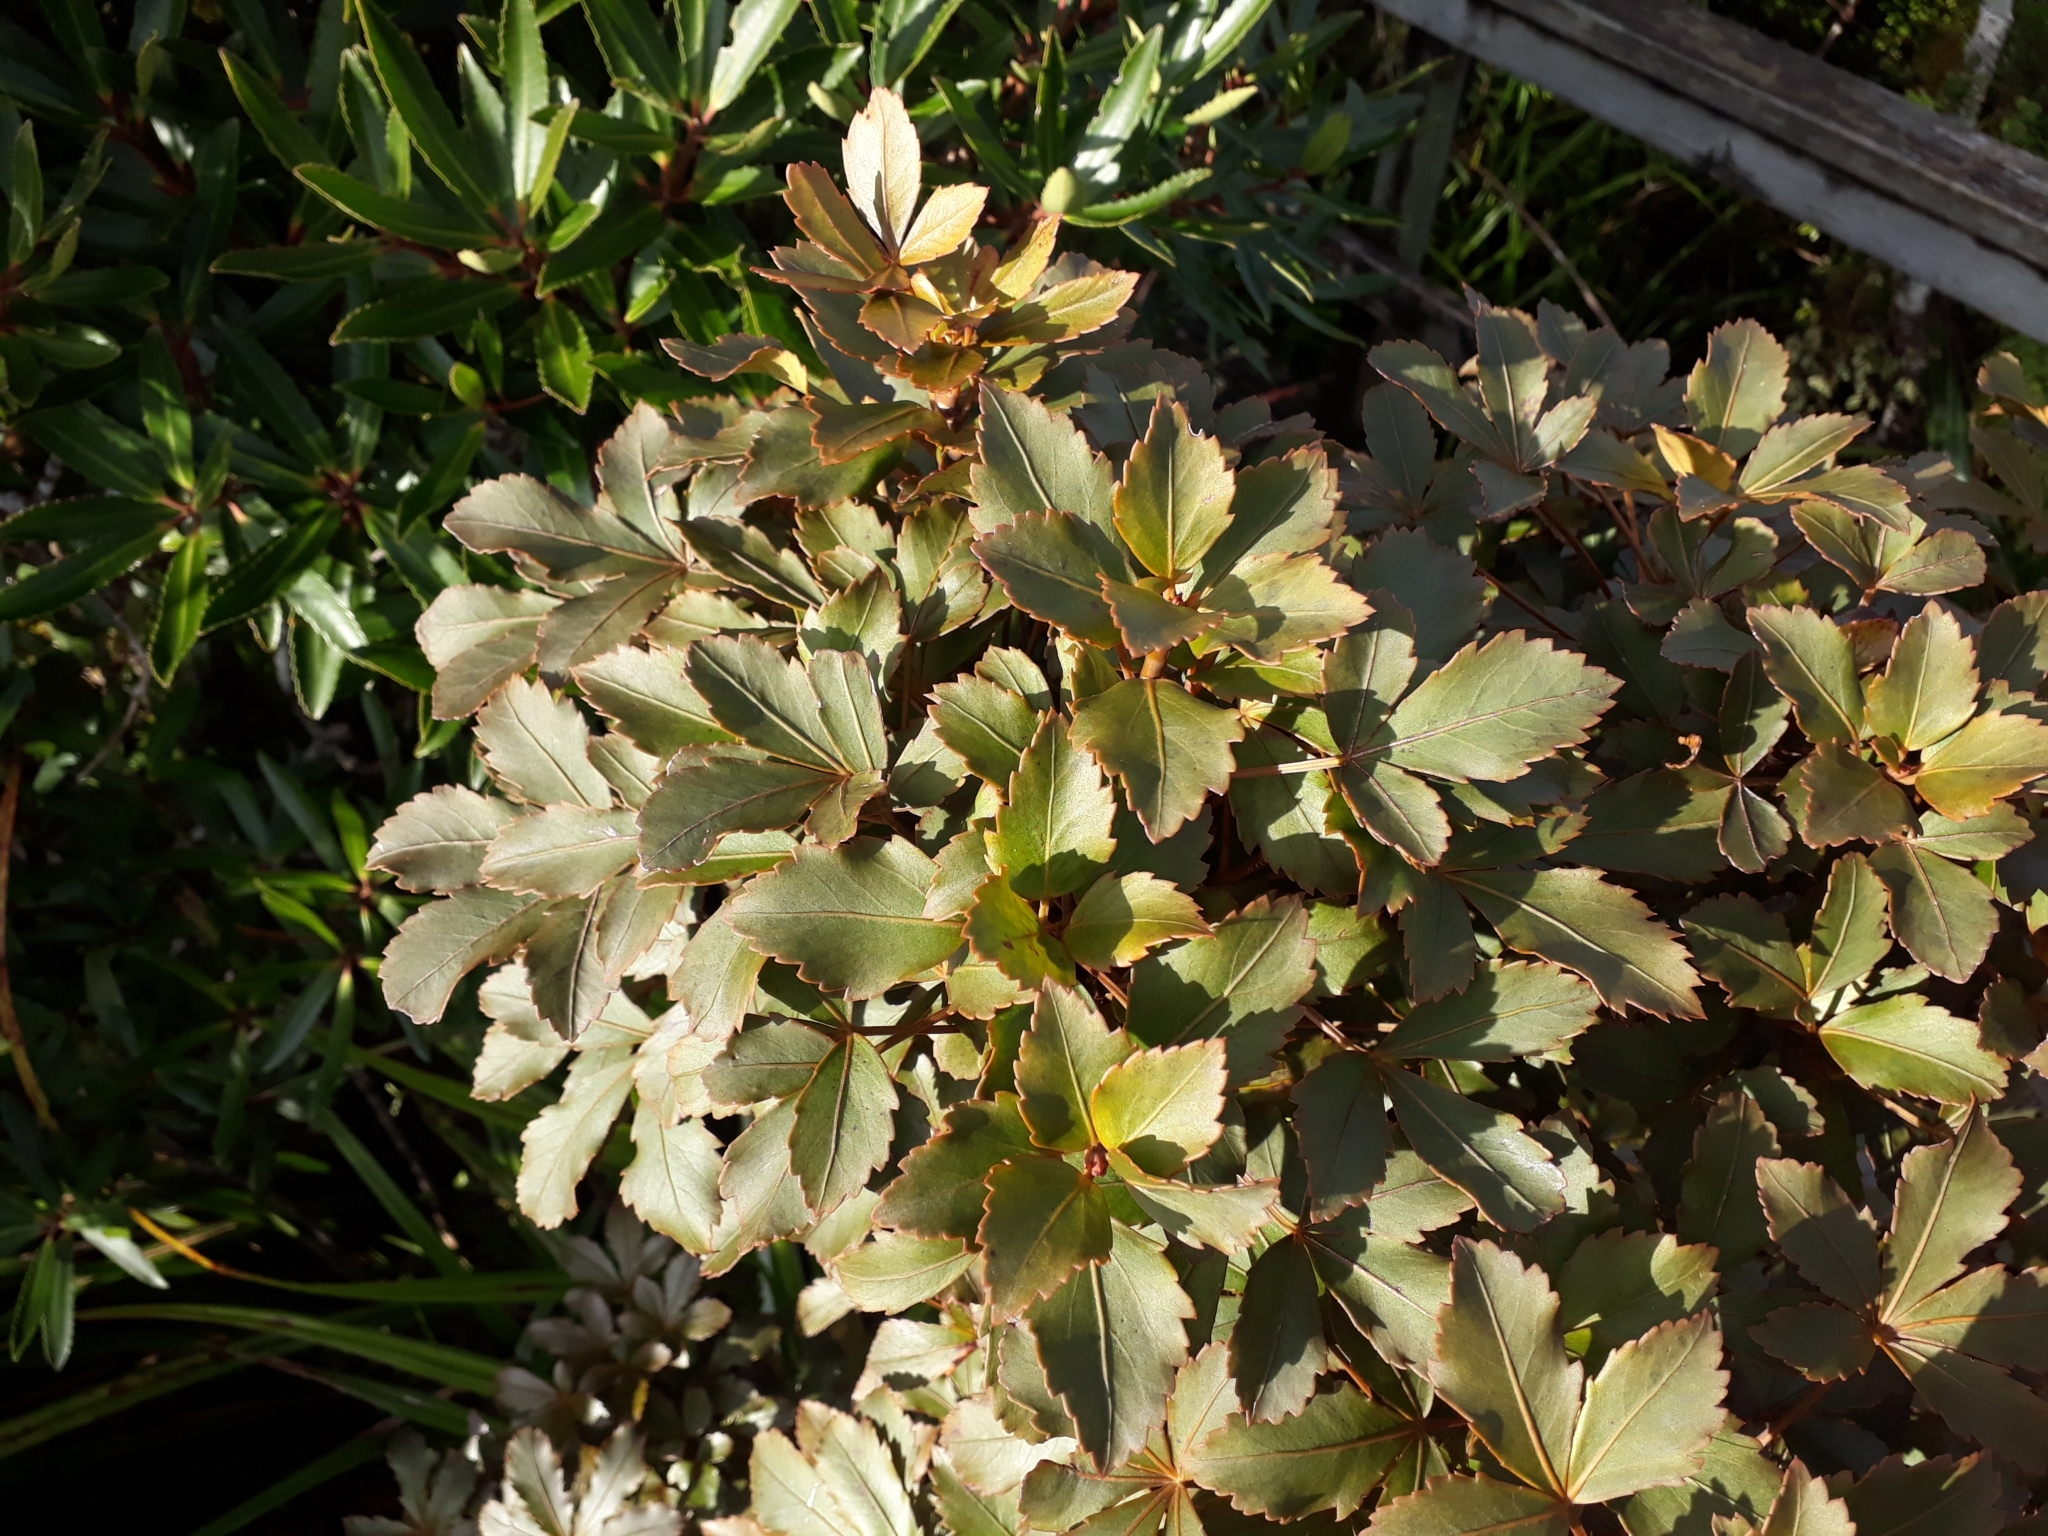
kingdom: Plantae
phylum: Tracheophyta
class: Magnoliopsida
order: Apiales
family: Araliaceae
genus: Pseudopanax
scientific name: Pseudopanax discolor
